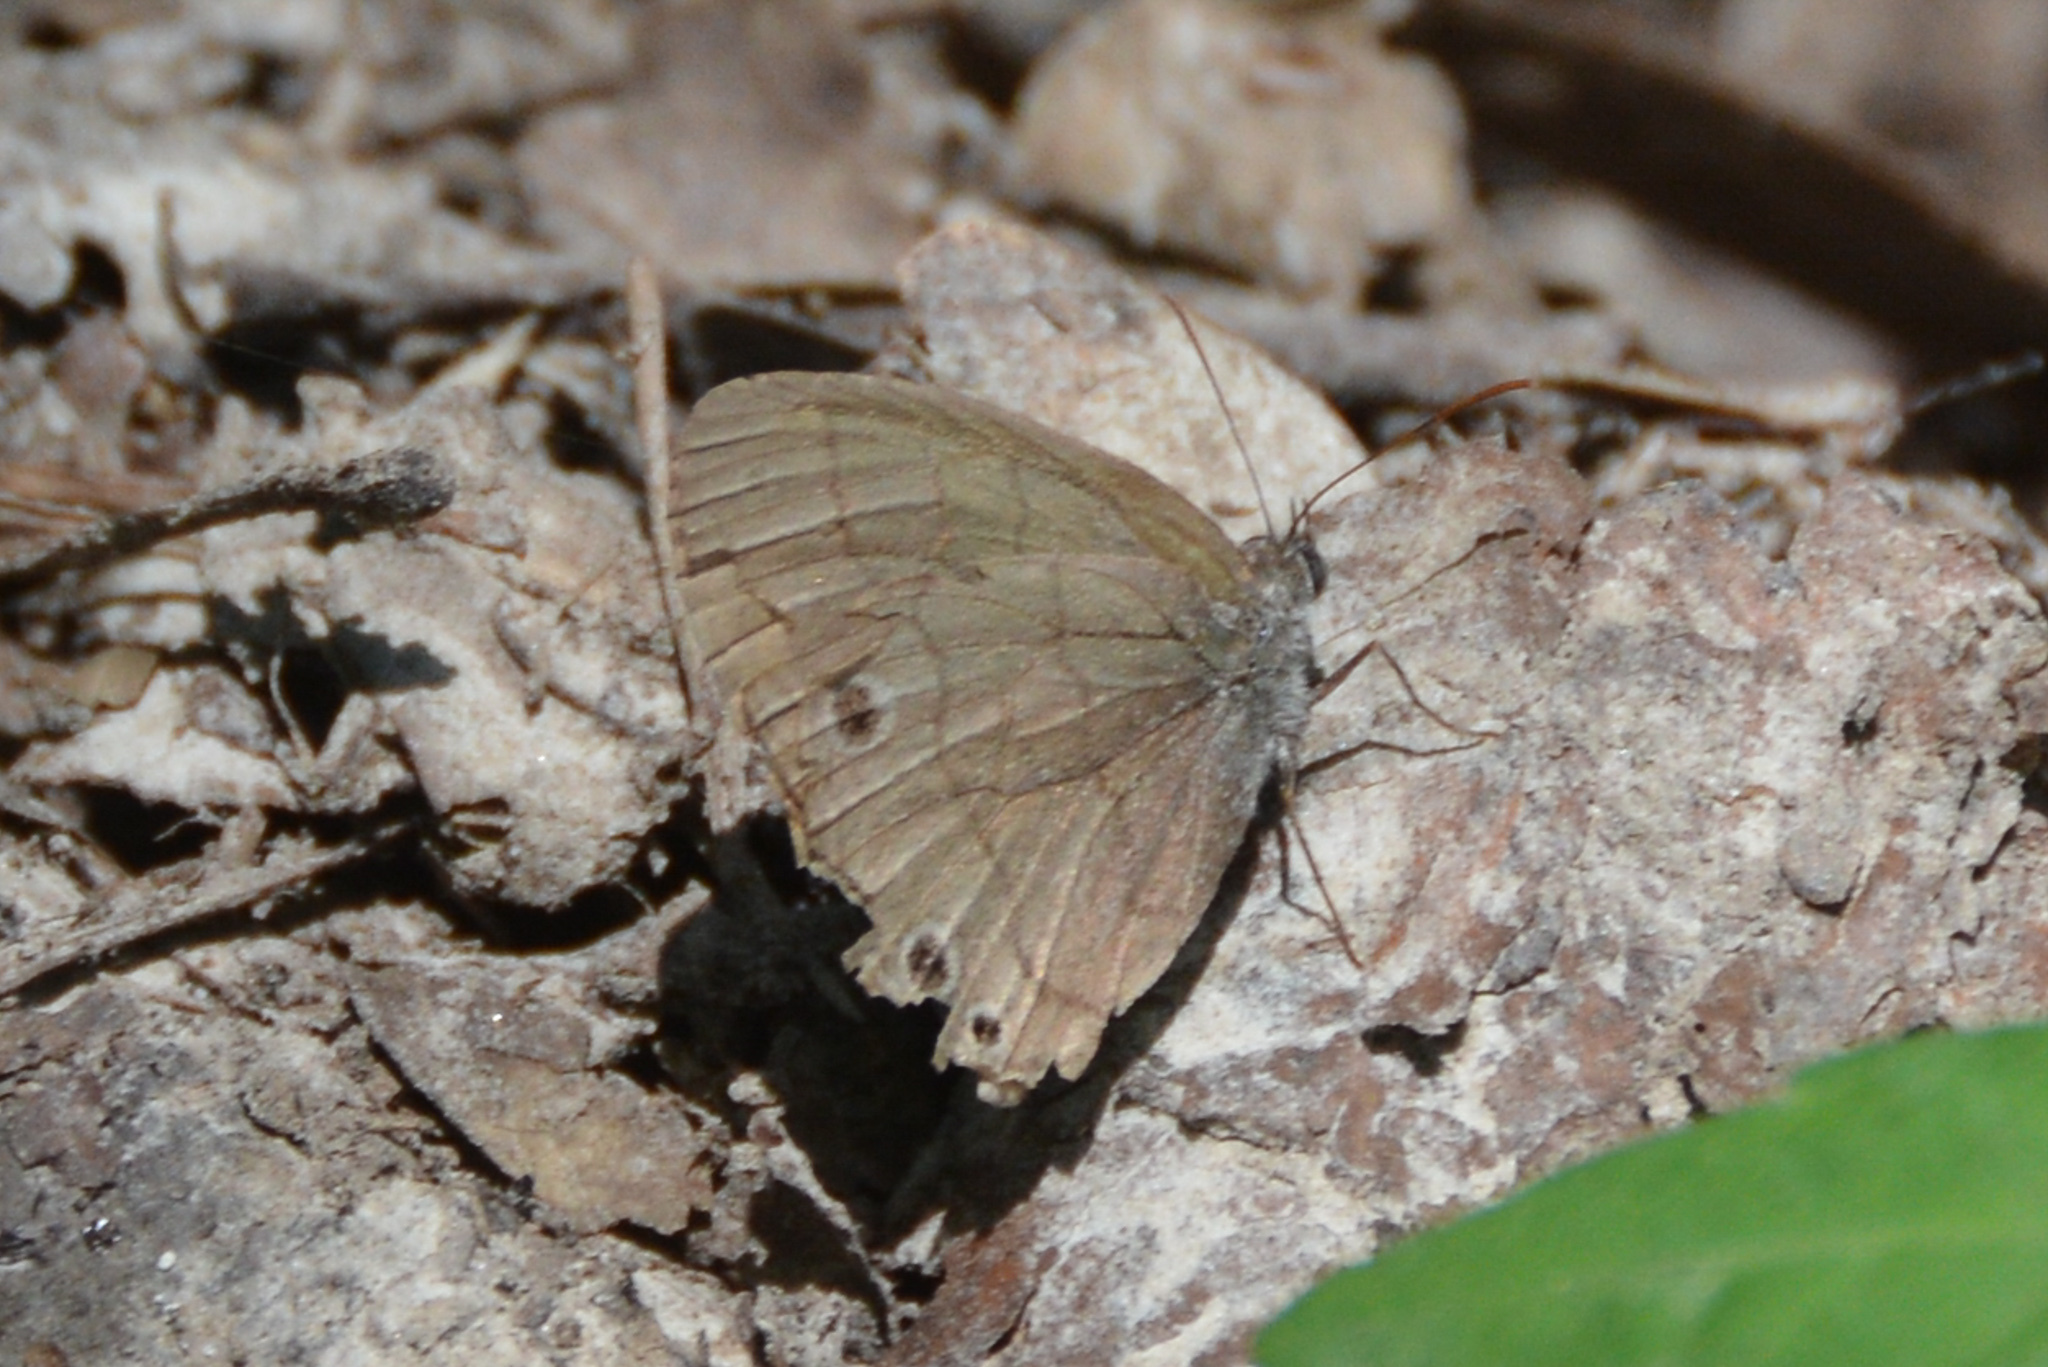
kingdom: Animalia
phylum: Arthropoda
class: Insecta
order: Lepidoptera
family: Nymphalidae
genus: Hermeuptychia
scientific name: Hermeuptychia hermes
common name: Hermes satyr
